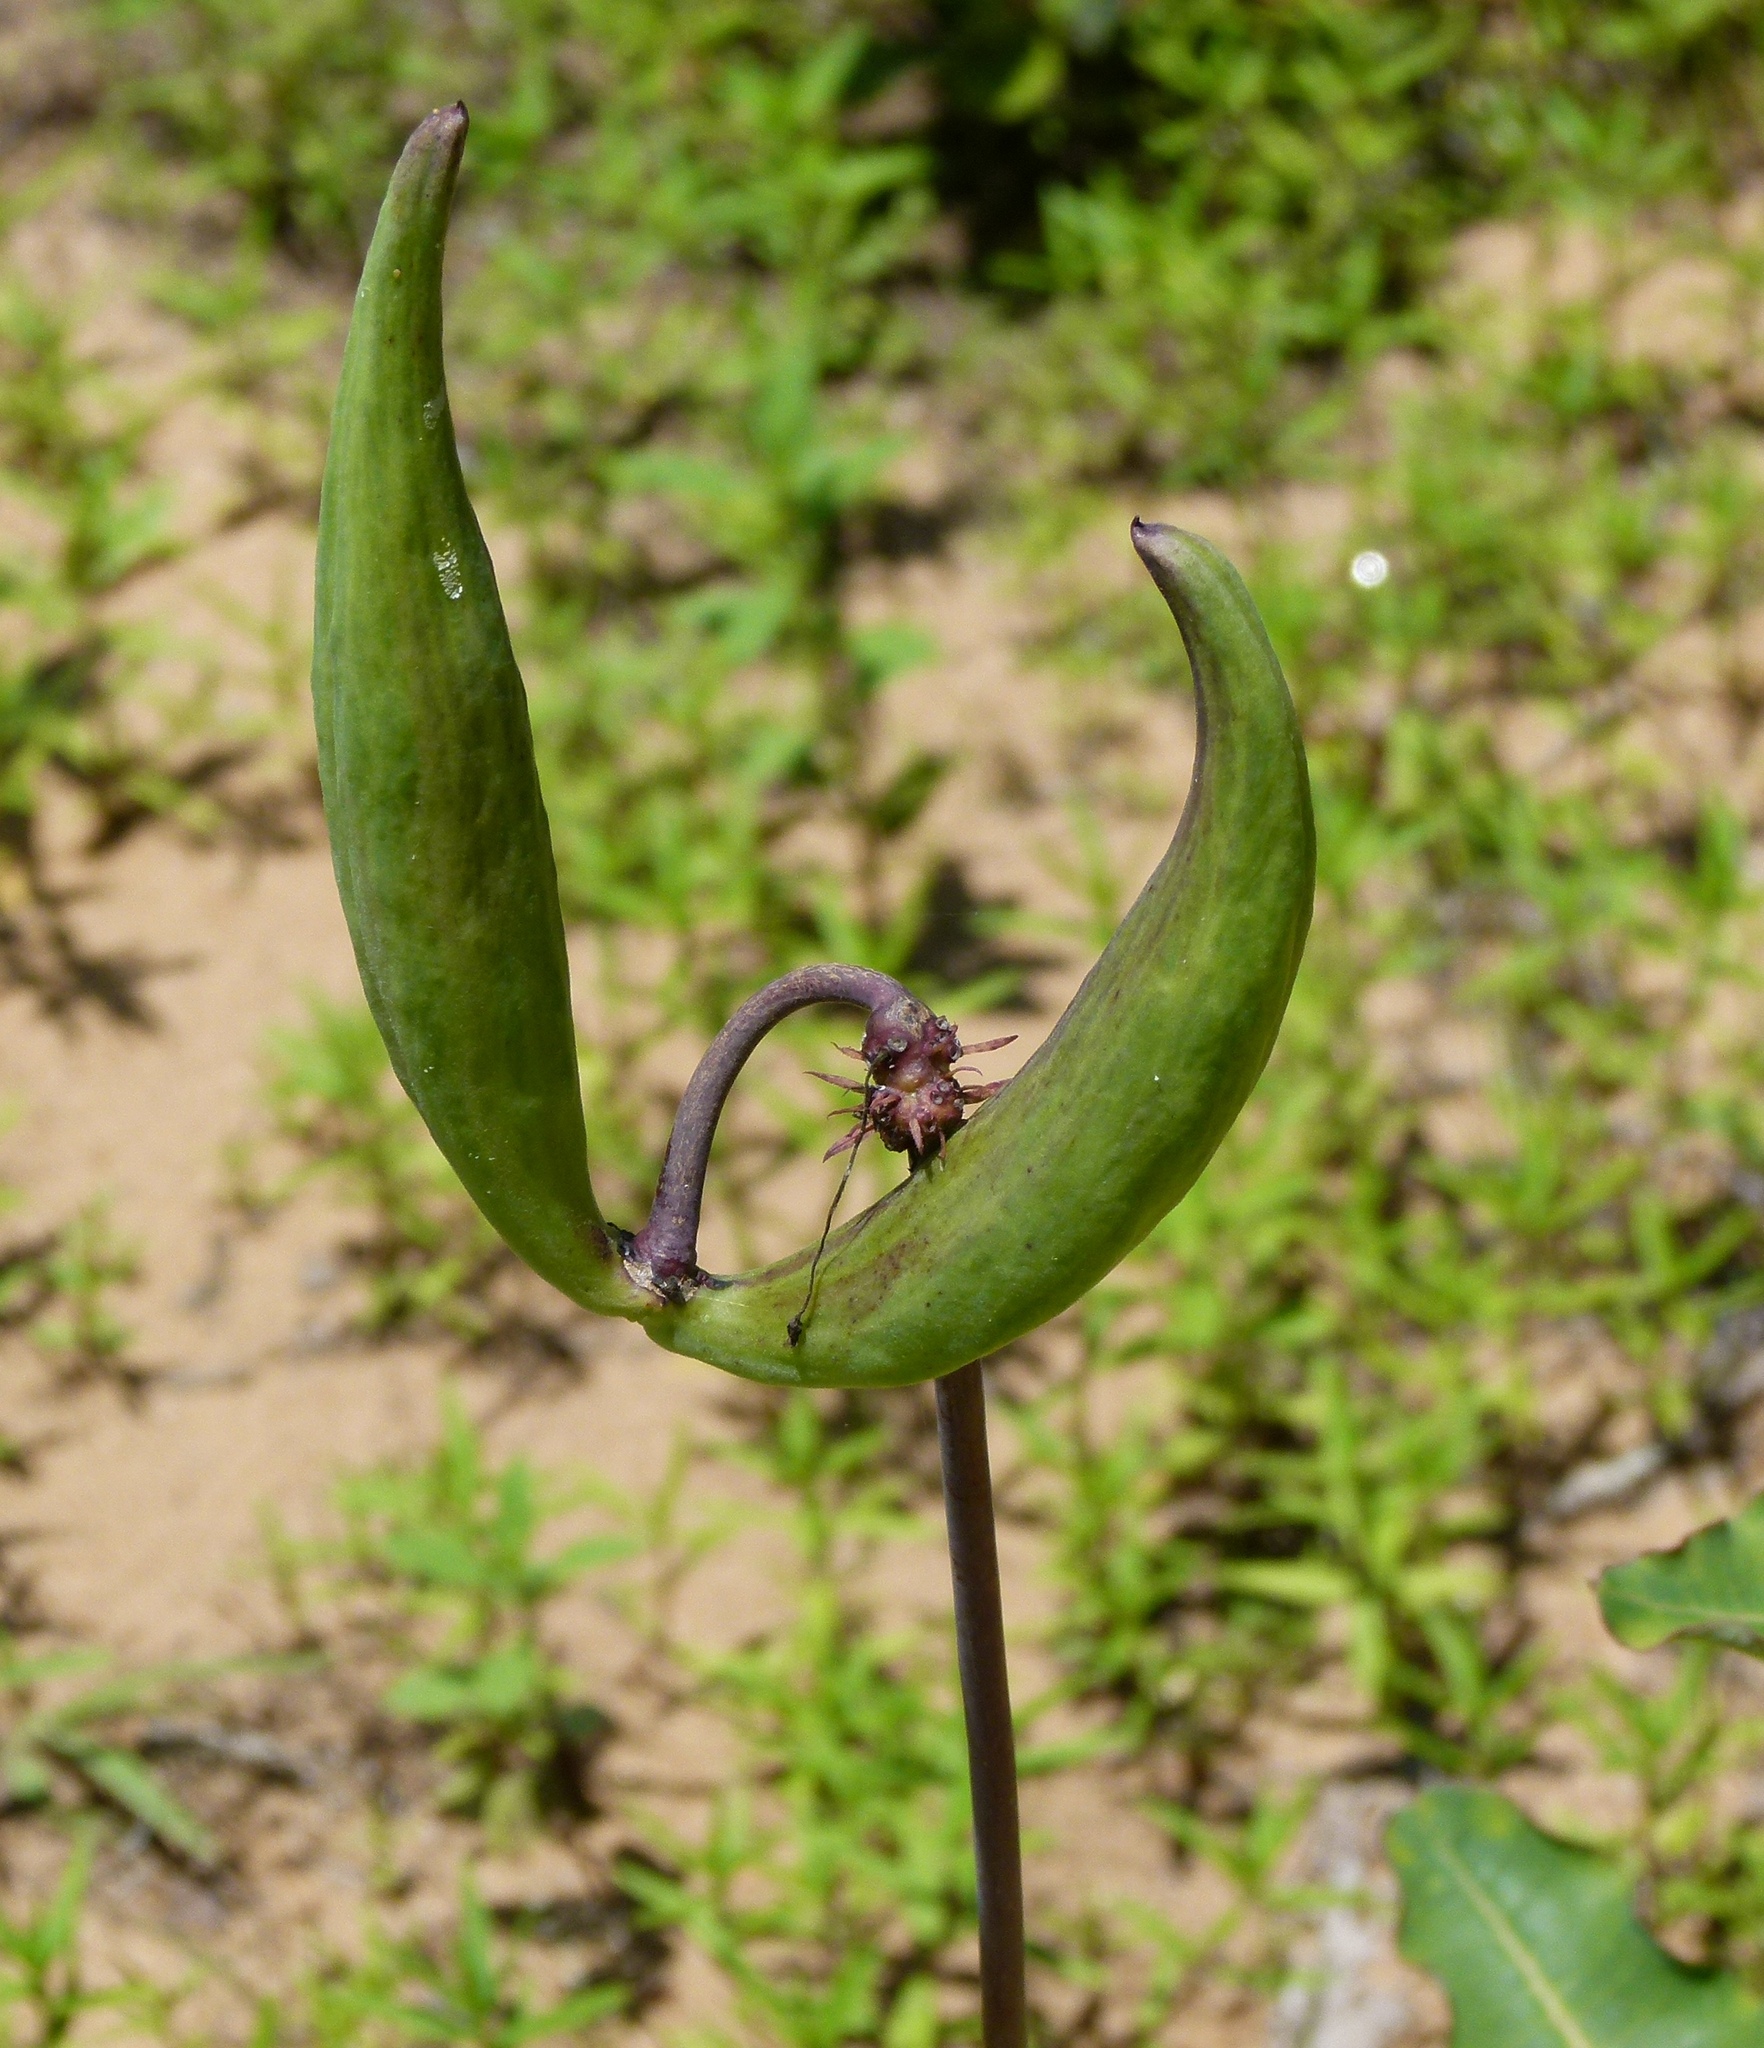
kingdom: Plantae
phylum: Tracheophyta
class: Magnoliopsida
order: Gentianales
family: Apocynaceae
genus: Asclepias
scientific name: Asclepias amplexicaulis
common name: Blunt-leaf milkweed
